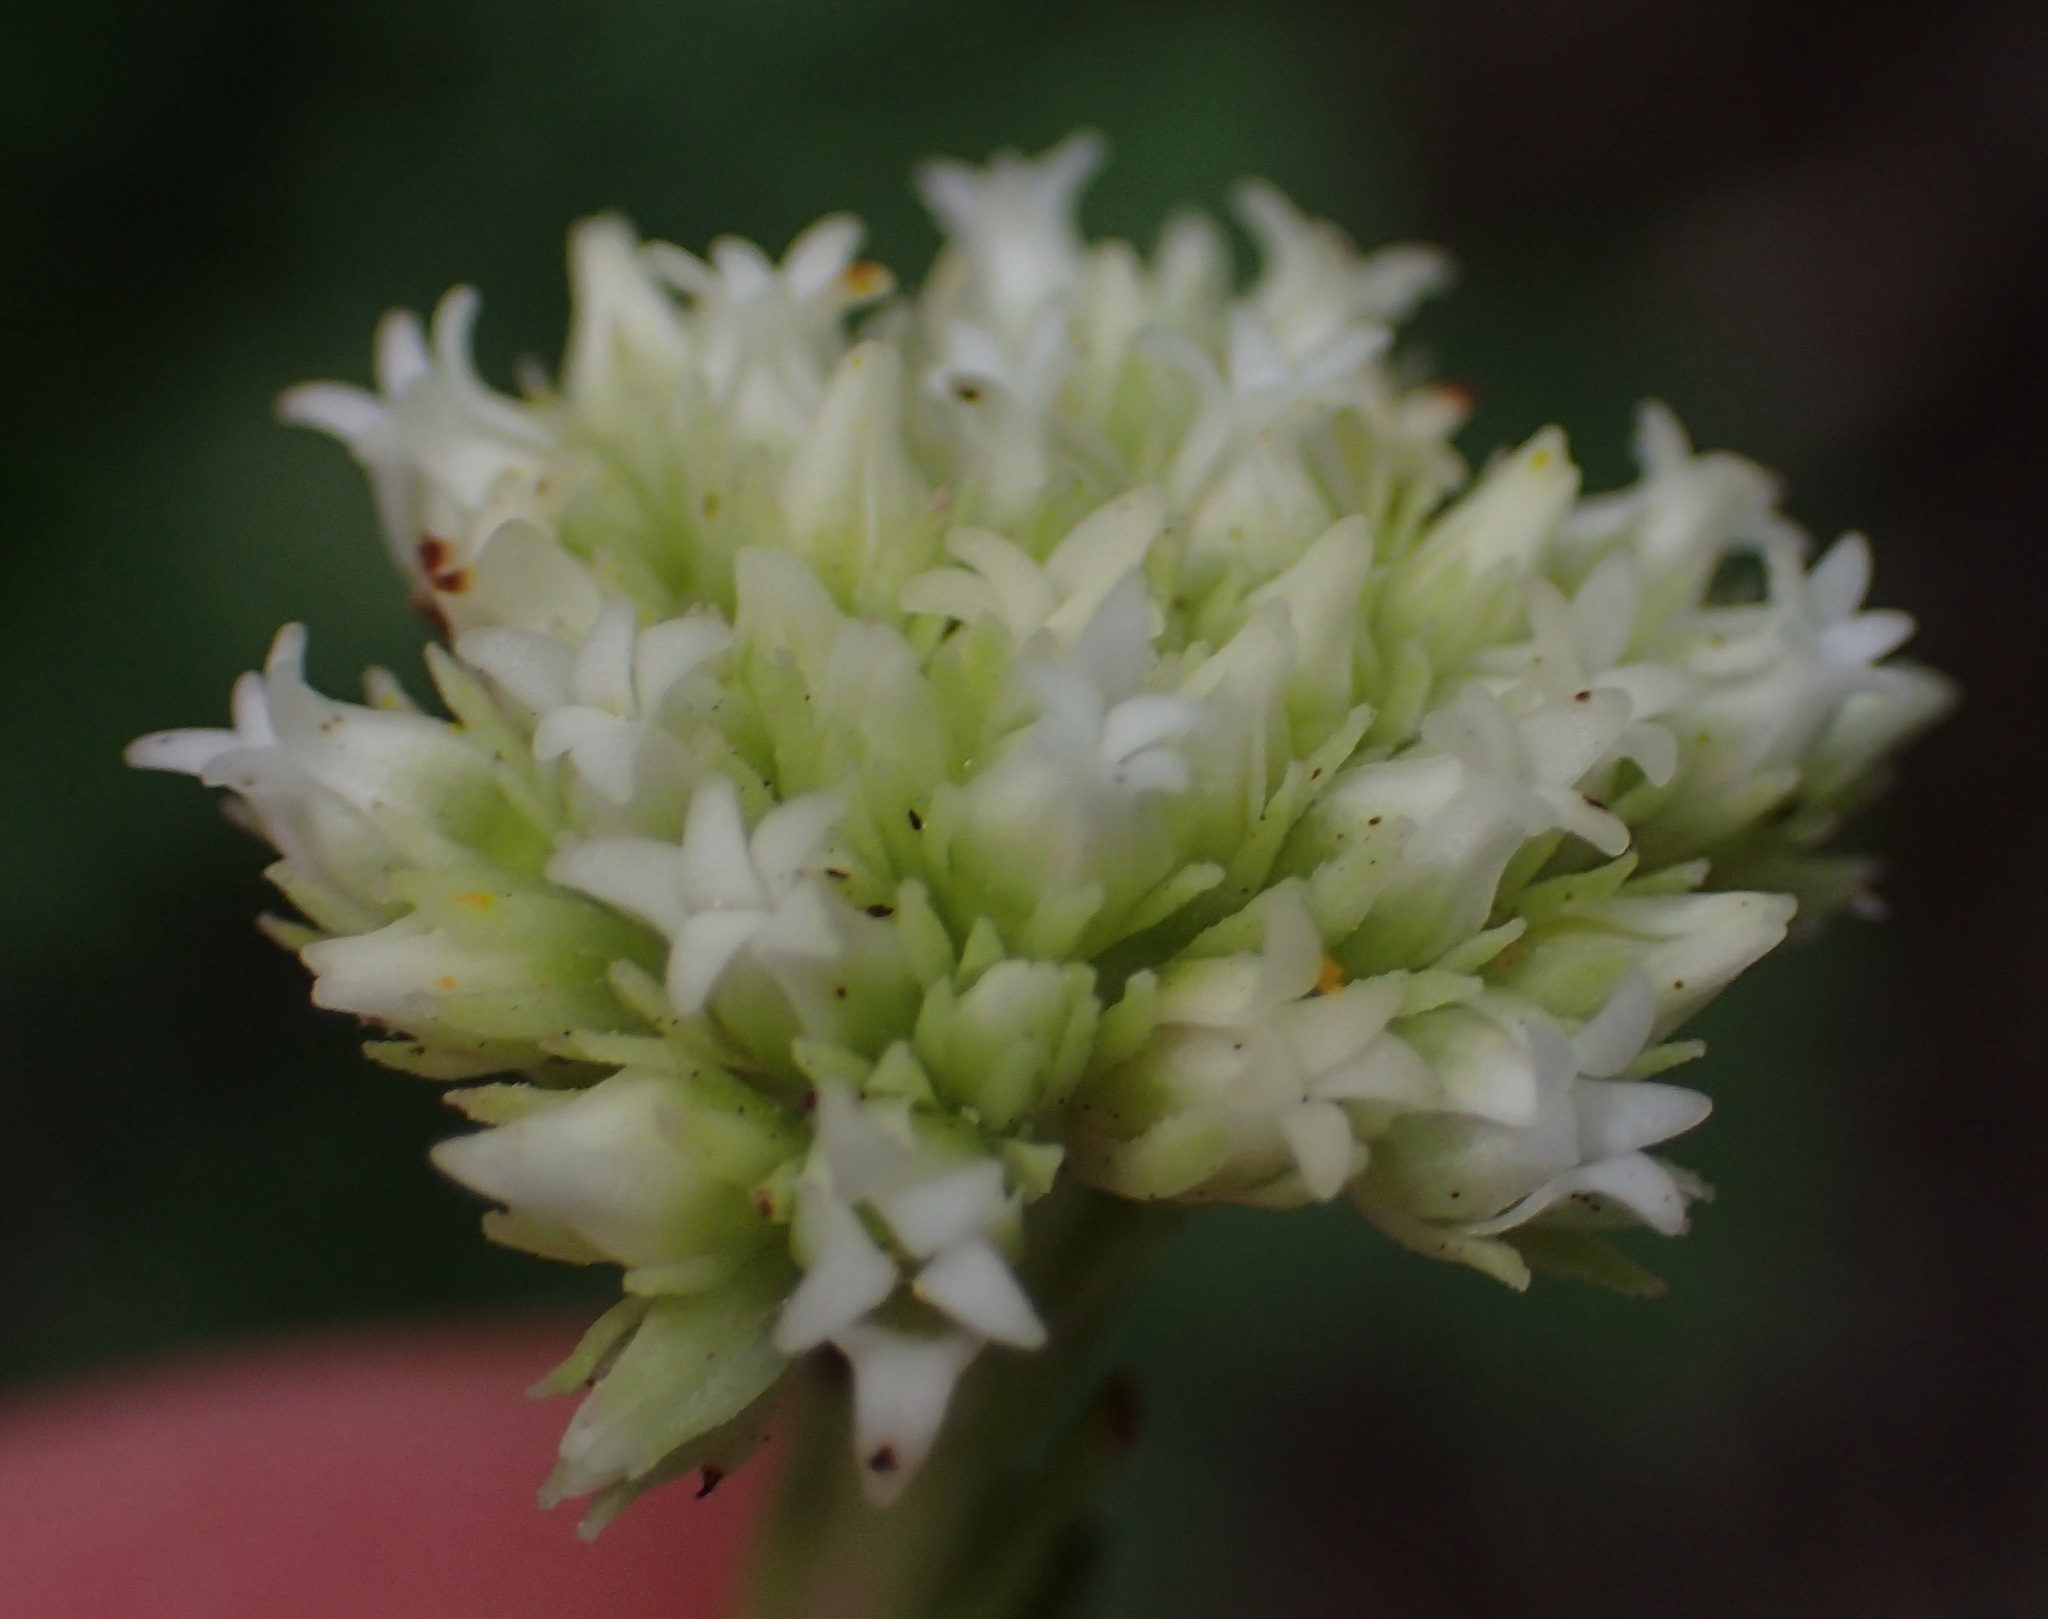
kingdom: Plantae
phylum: Tracheophyta
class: Magnoliopsida
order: Saxifragales
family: Crassulaceae
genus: Crassula
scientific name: Crassula subulata
